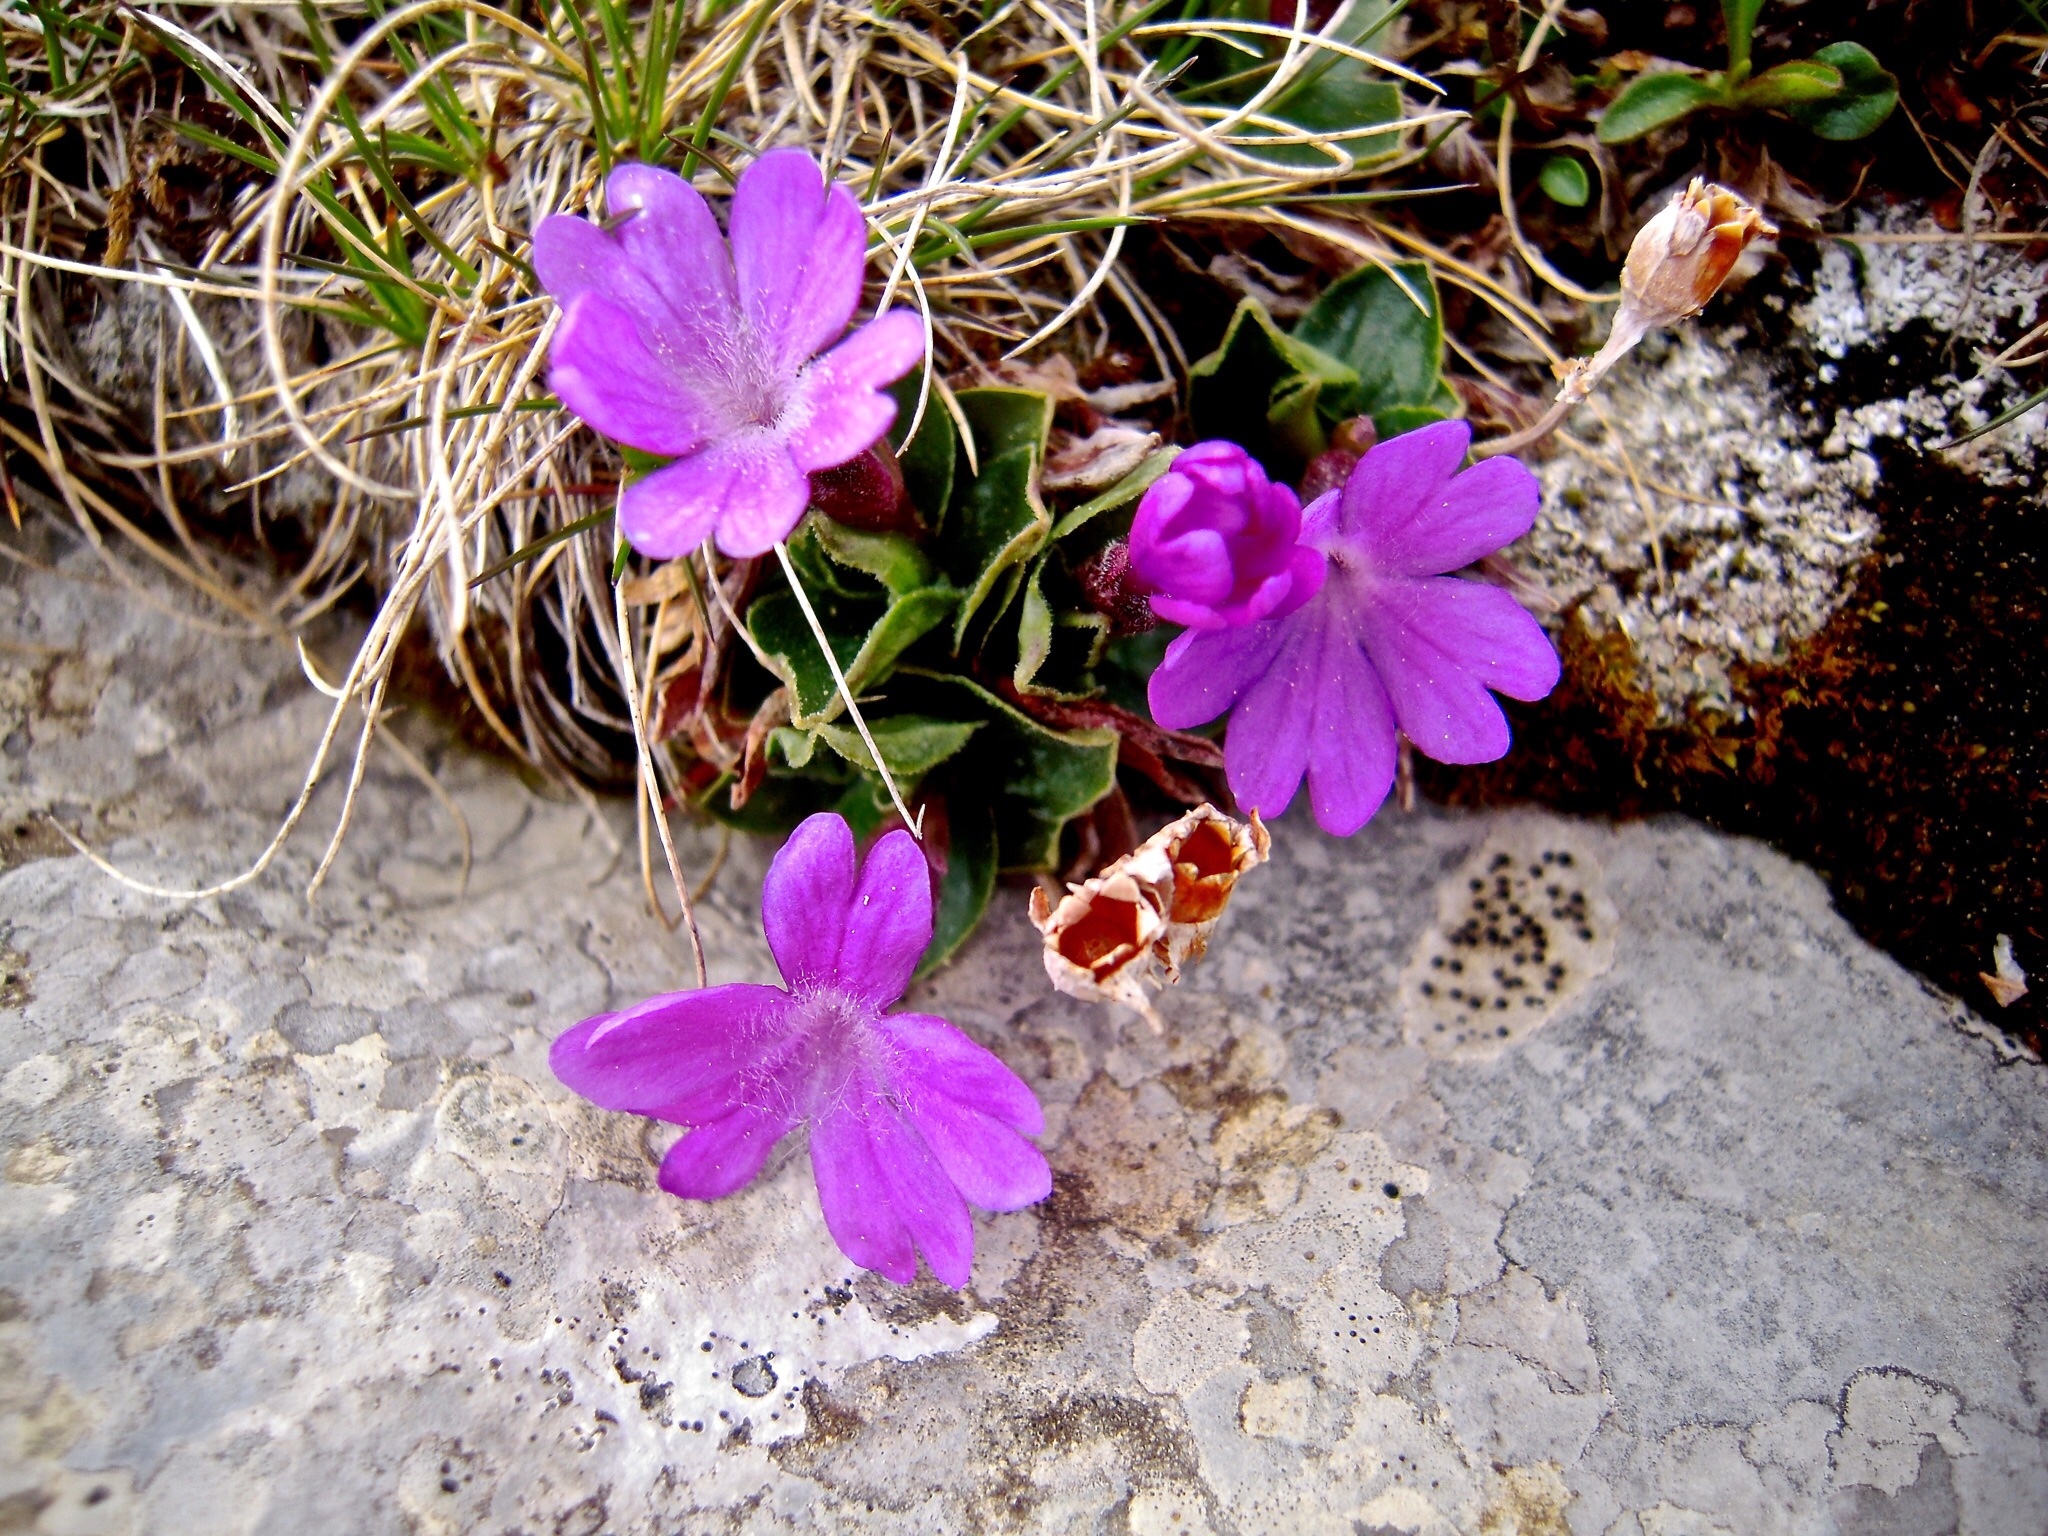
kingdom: Plantae
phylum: Tracheophyta
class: Magnoliopsida
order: Ericales
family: Primulaceae
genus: Primula
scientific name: Primula integrifolia
